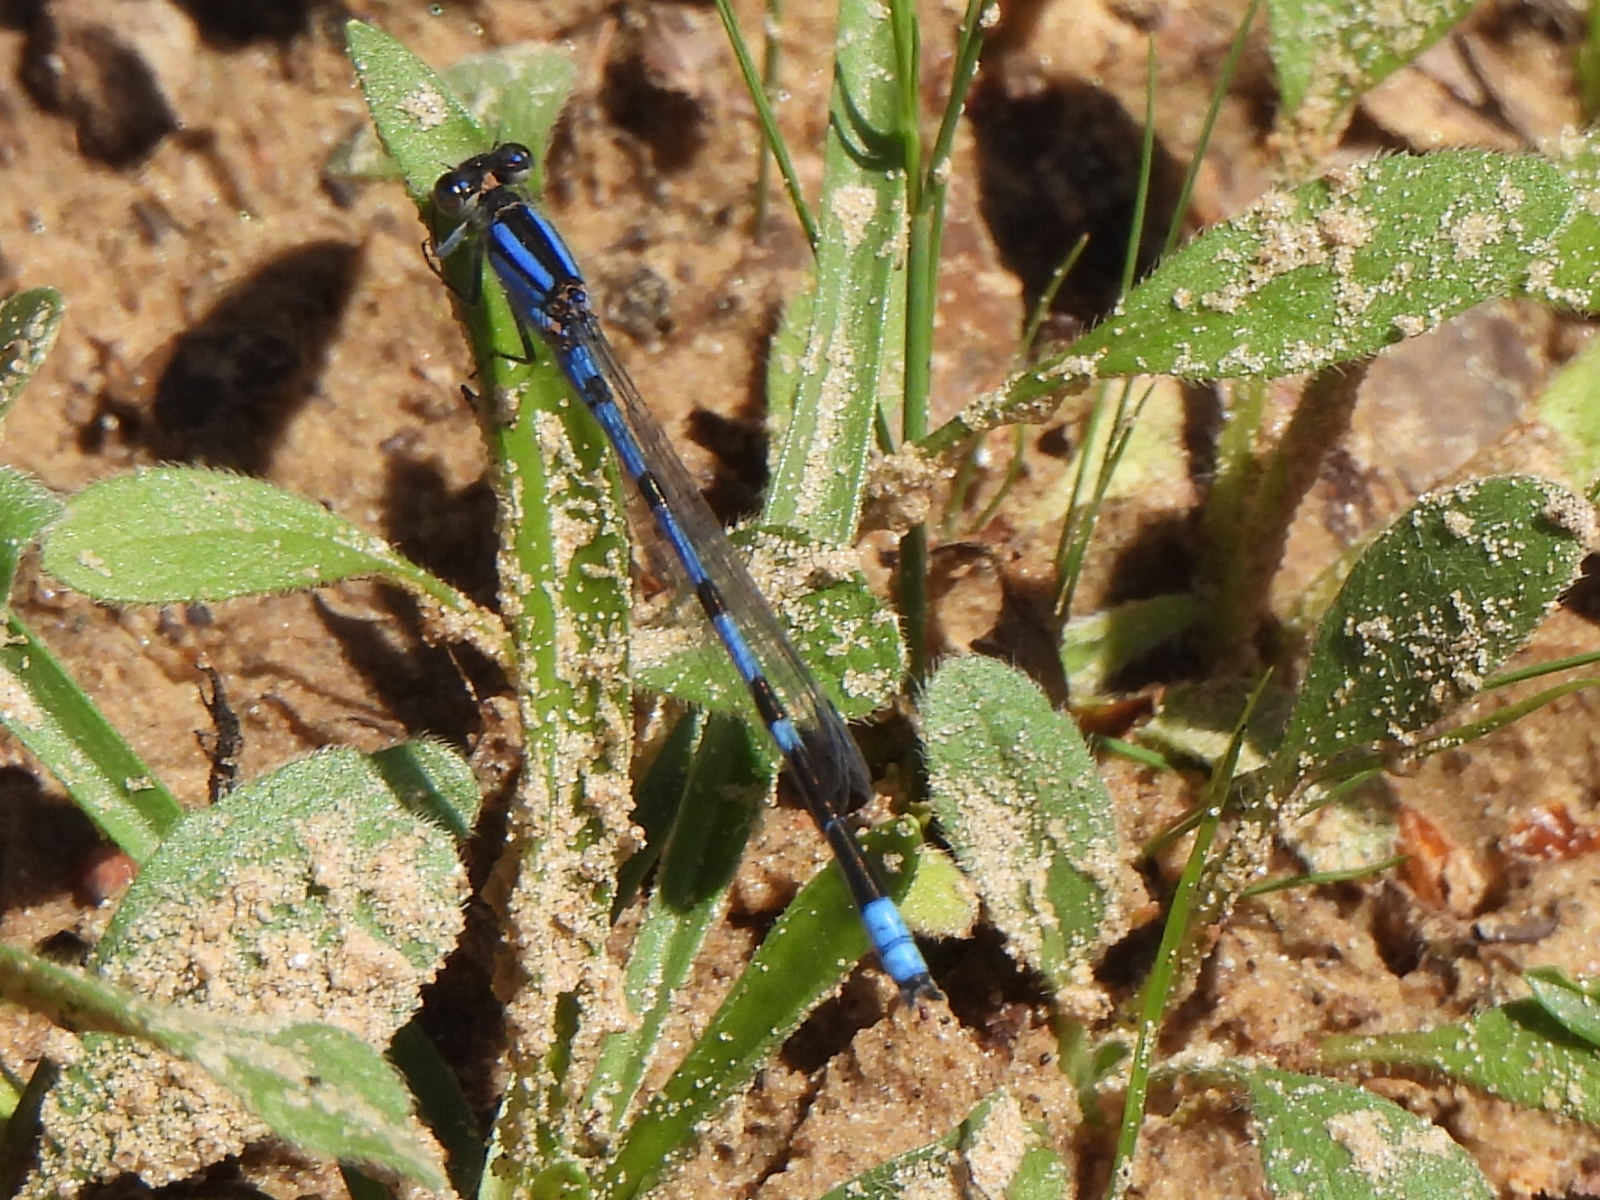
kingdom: Animalia
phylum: Arthropoda
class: Insecta
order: Odonata
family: Coenagrionidae
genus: Enallagma
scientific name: Enallagma civile
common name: Damselfly
